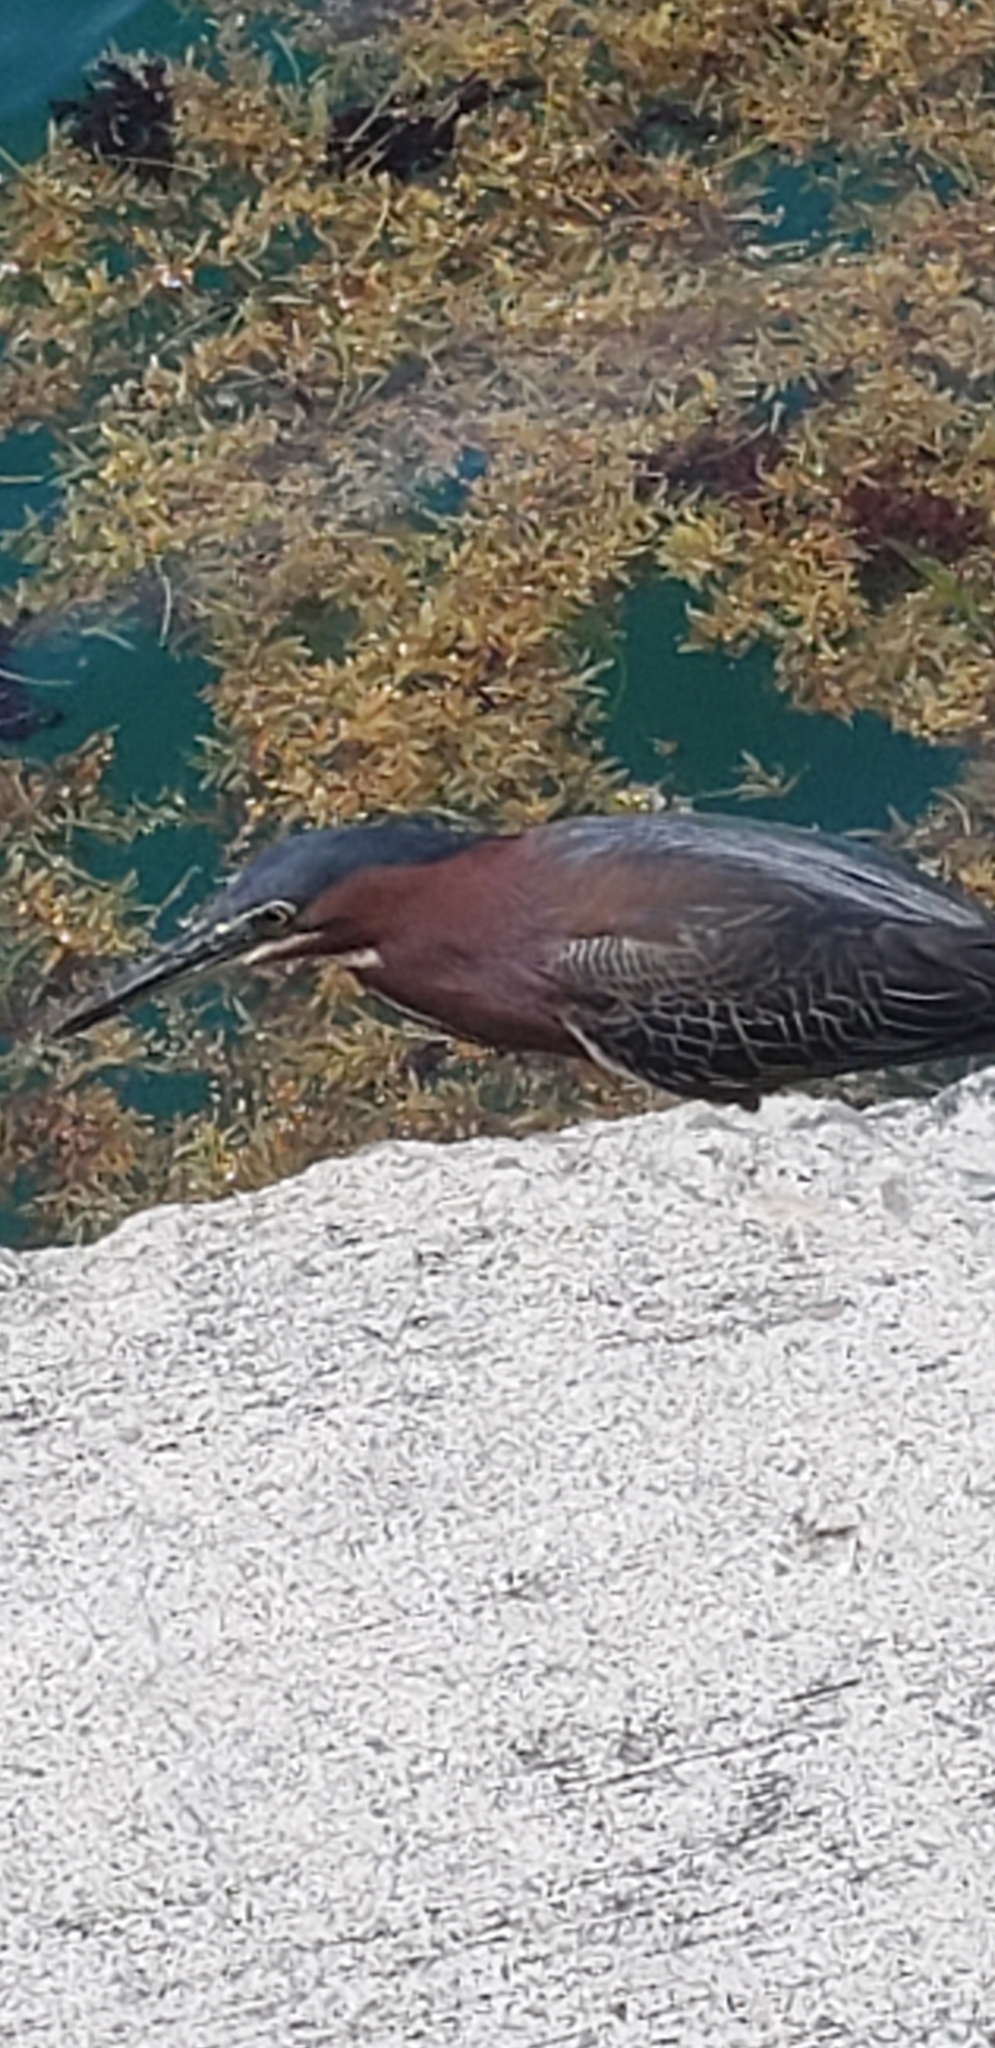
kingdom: Animalia
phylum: Chordata
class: Aves
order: Pelecaniformes
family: Ardeidae
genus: Butorides
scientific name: Butorides virescens
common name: Green heron
